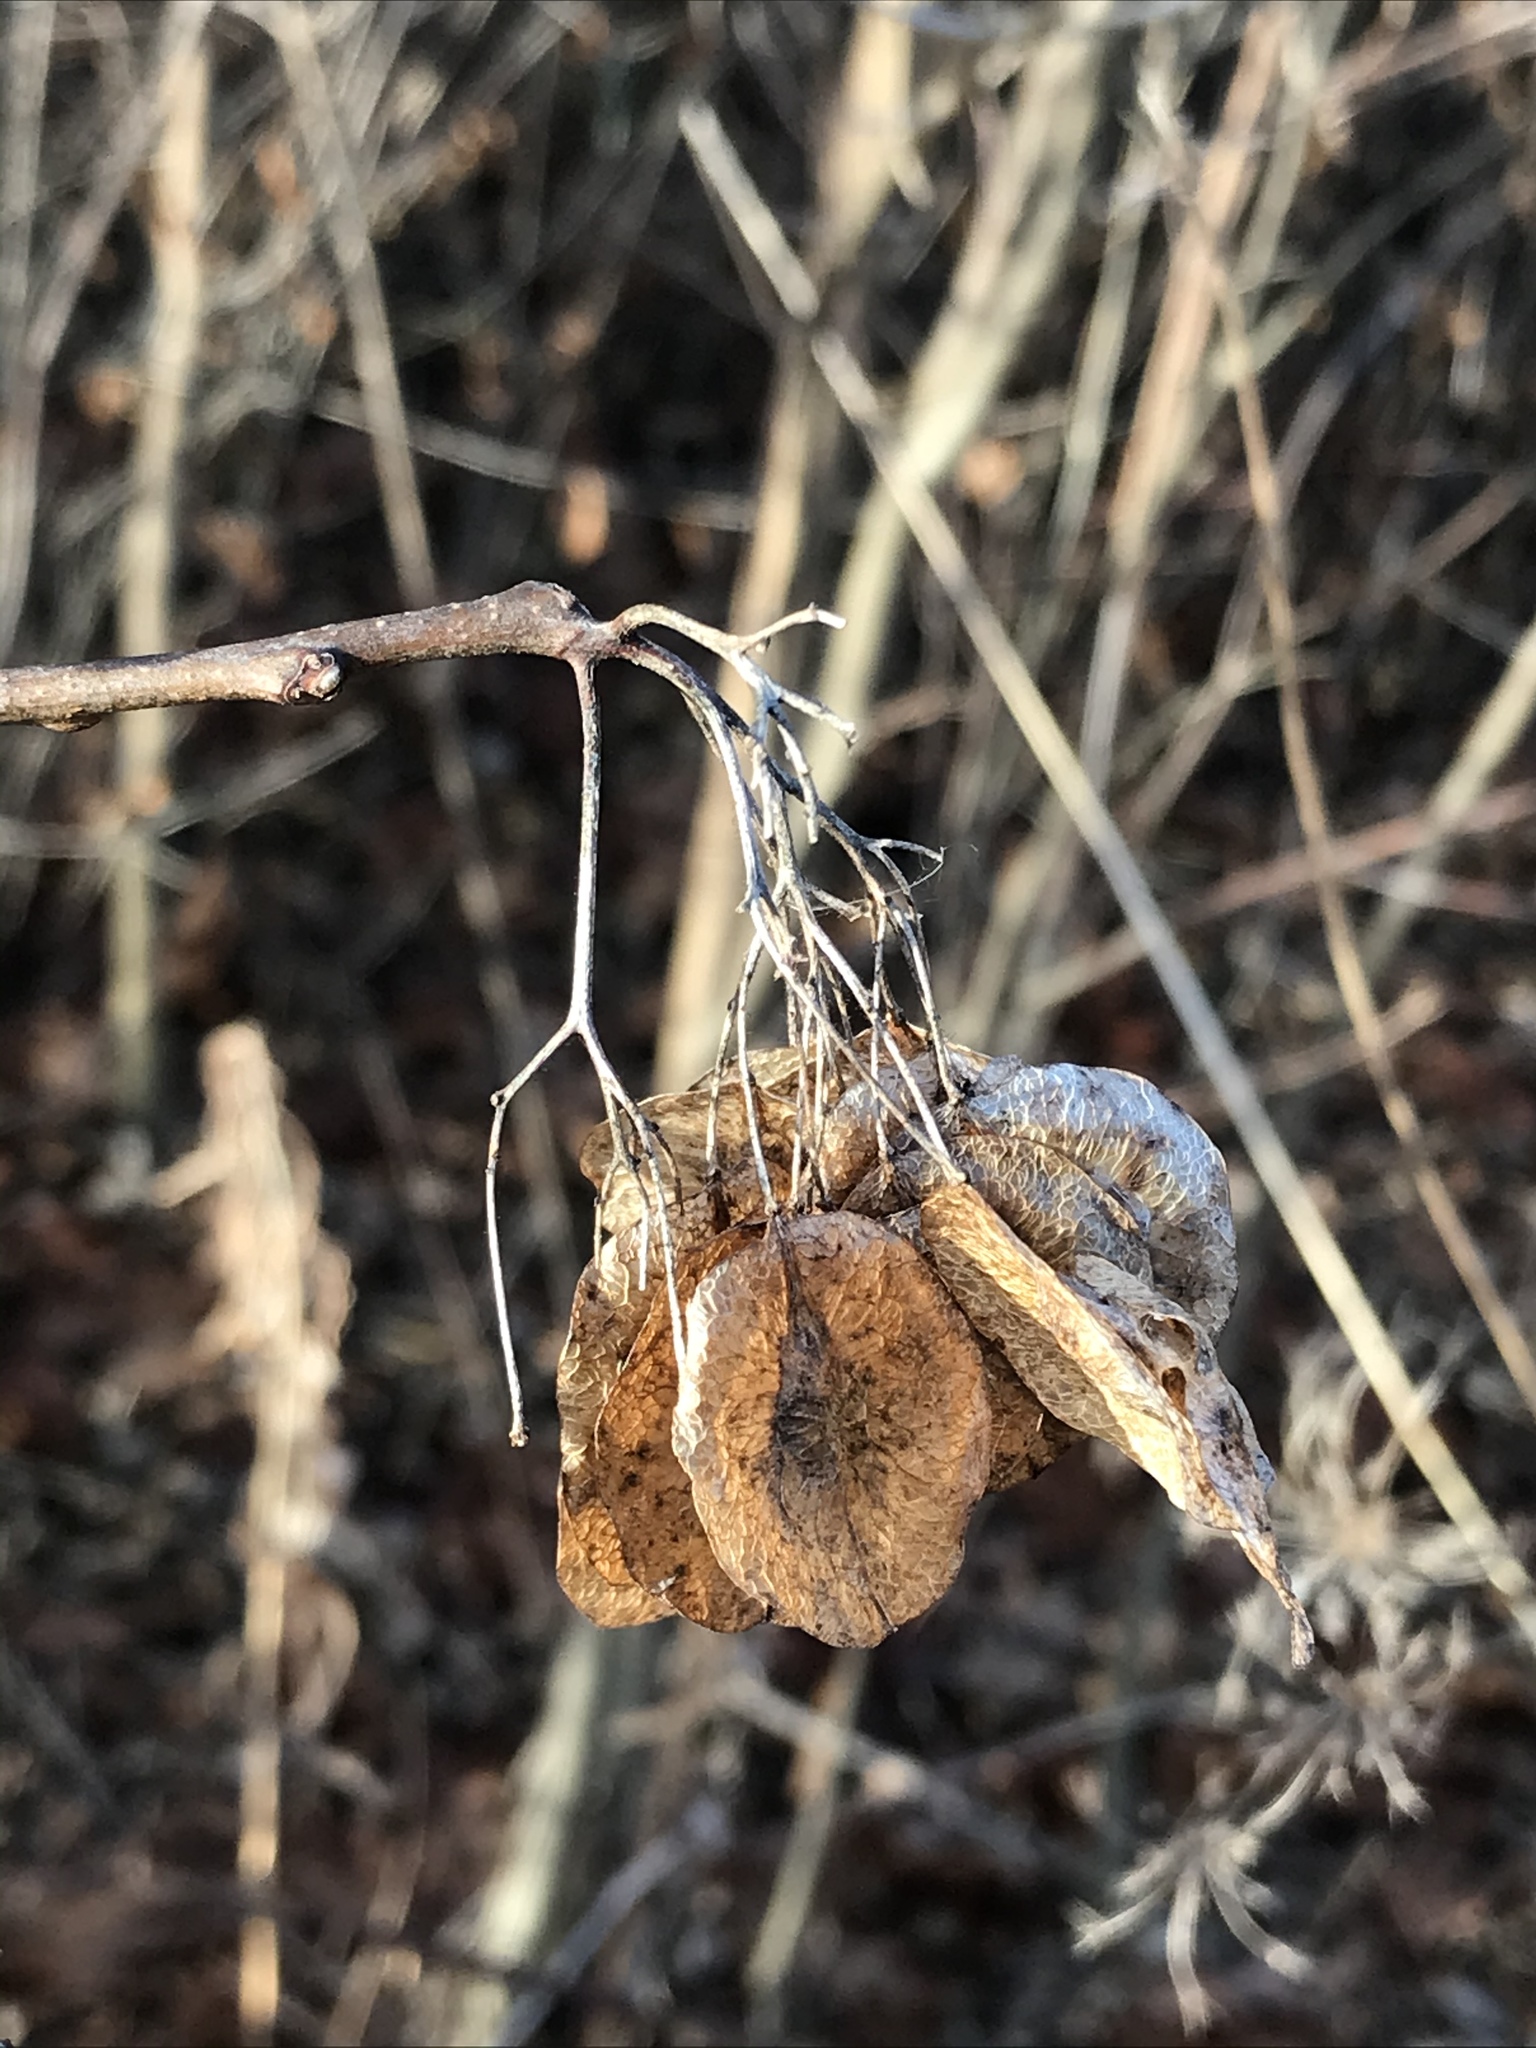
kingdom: Plantae
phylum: Tracheophyta
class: Magnoliopsida
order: Sapindales
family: Rutaceae
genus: Ptelea
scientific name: Ptelea trifoliata
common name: Common hop-tree
